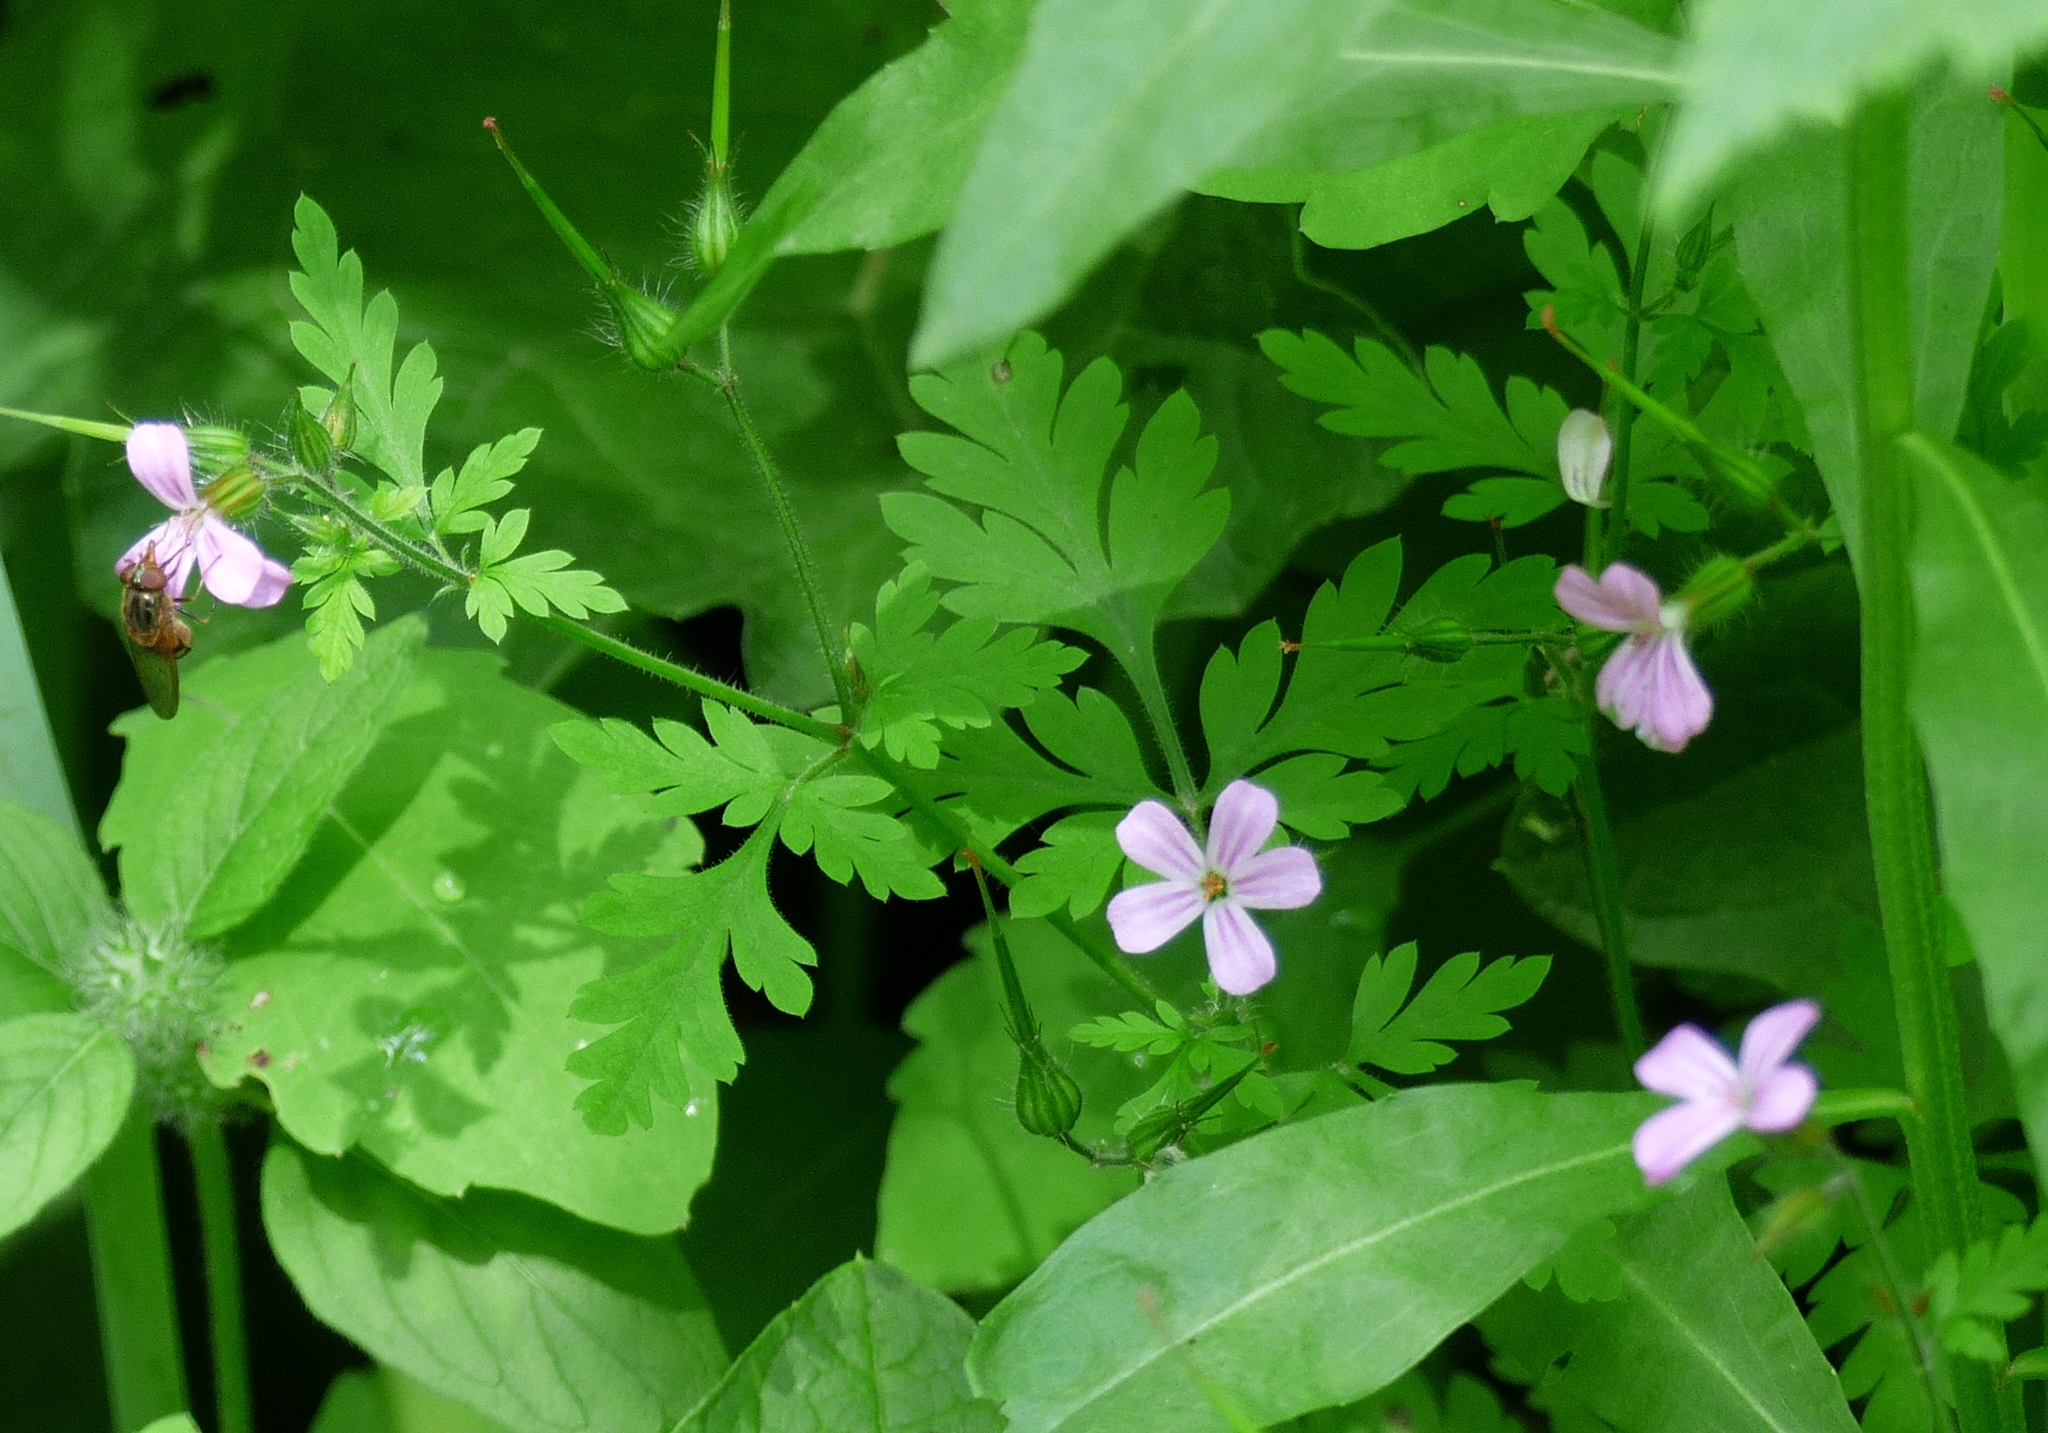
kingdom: Plantae
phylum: Tracheophyta
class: Magnoliopsida
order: Geraniales
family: Geraniaceae
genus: Geranium
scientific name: Geranium robertianum
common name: Herb-robert
